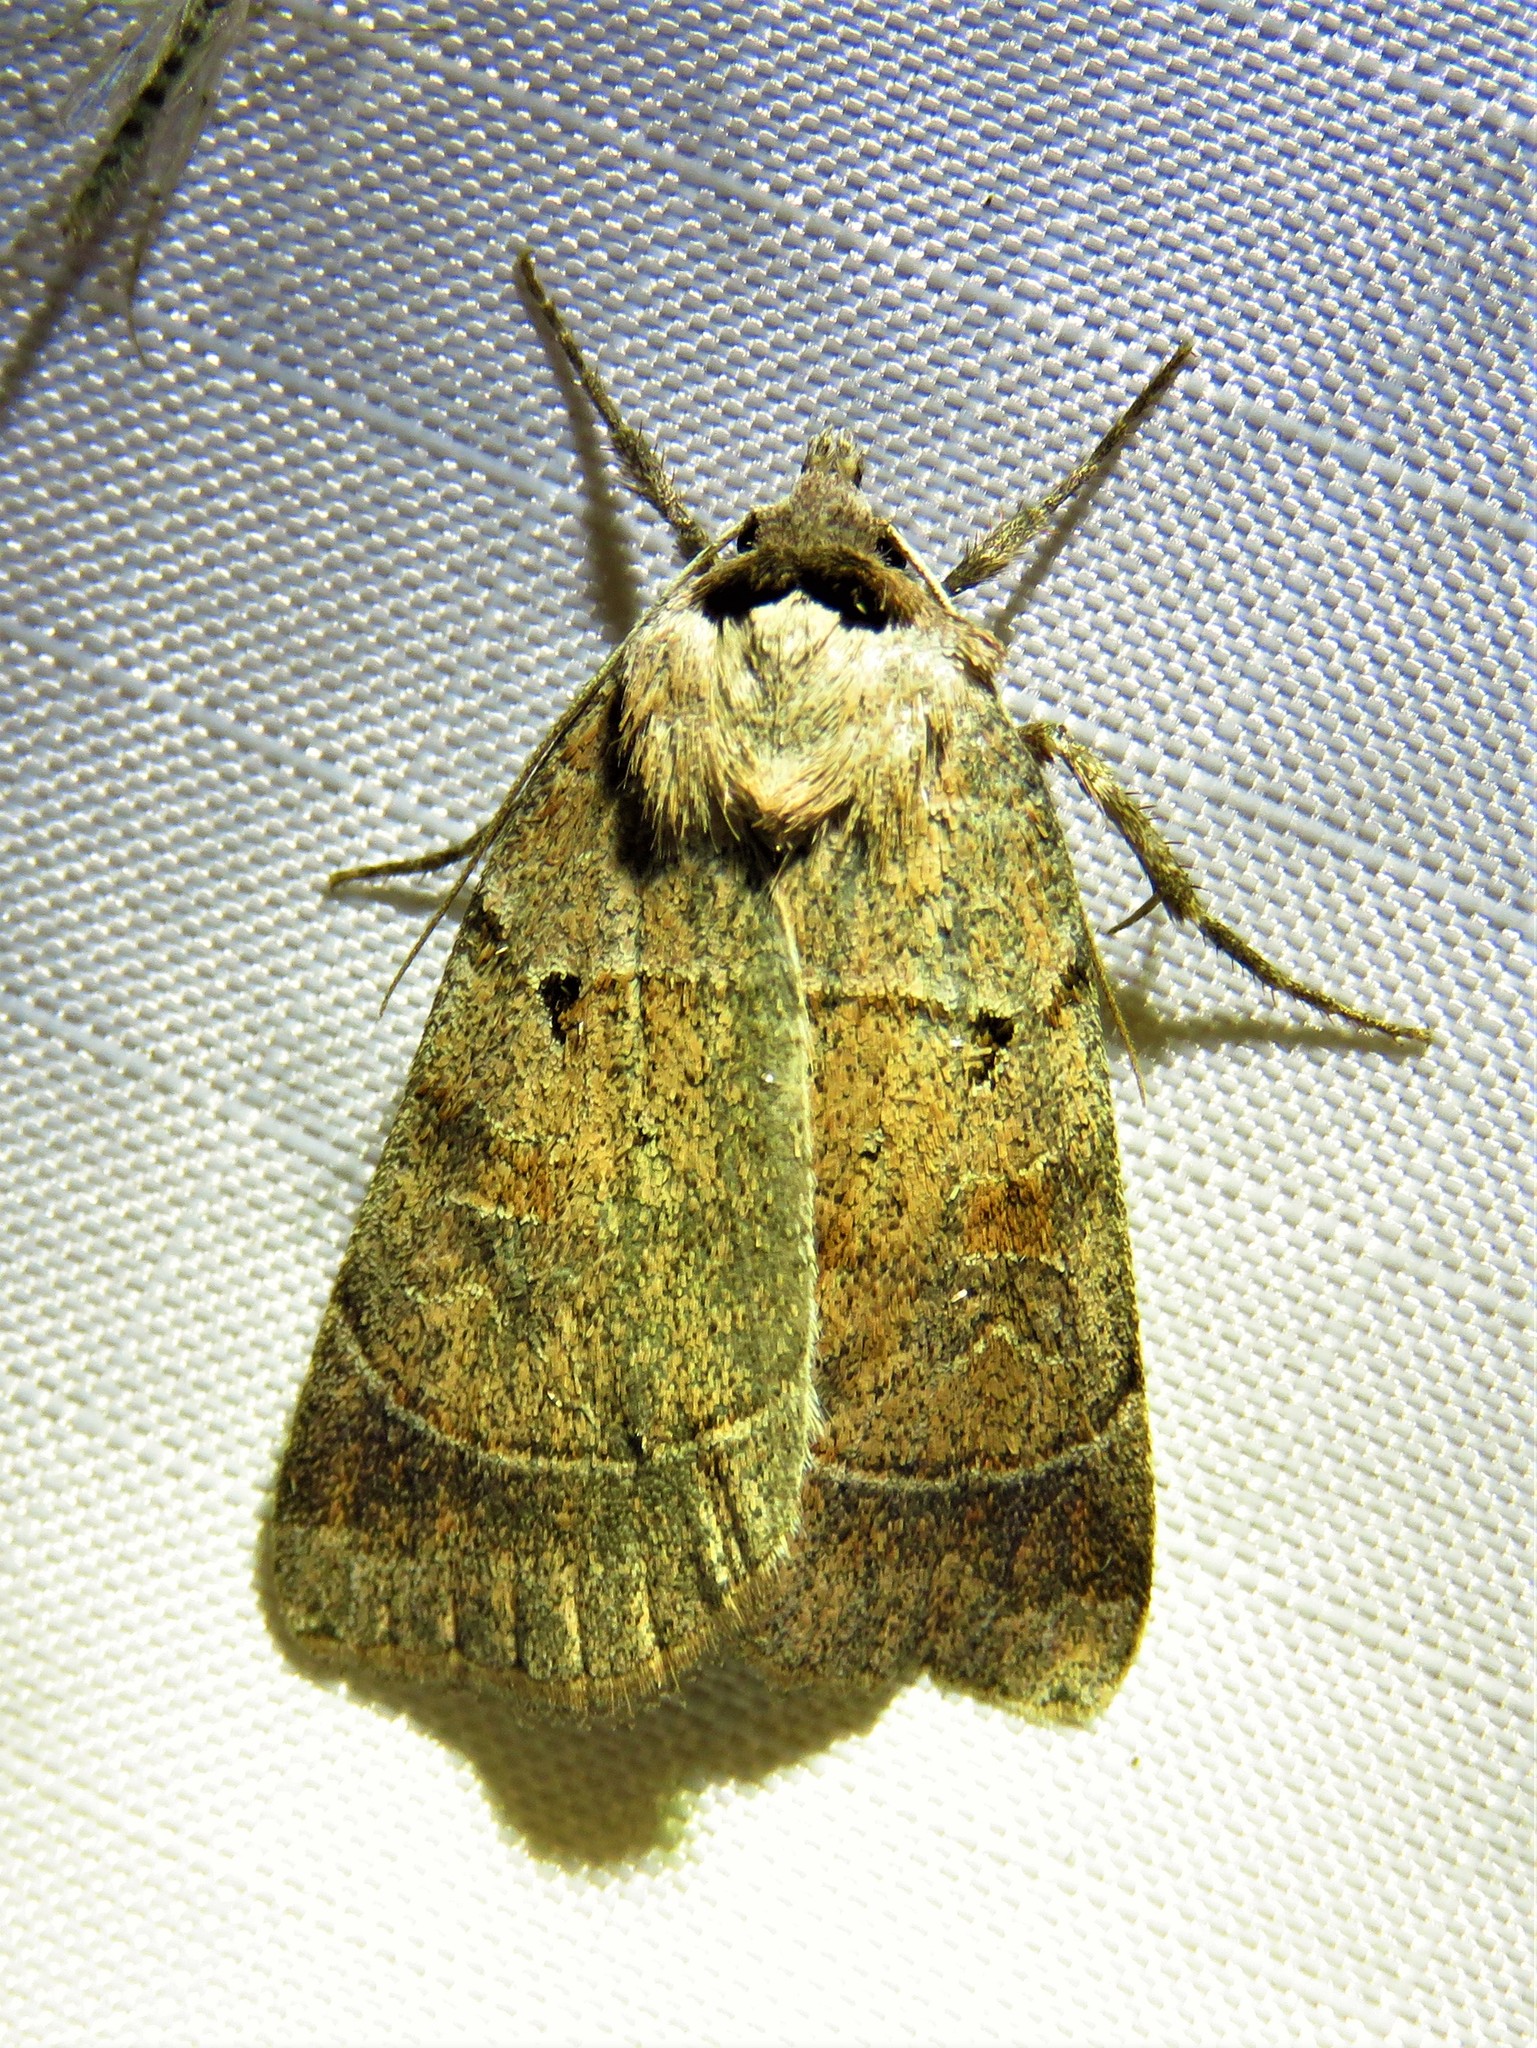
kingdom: Animalia
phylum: Arthropoda
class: Insecta
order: Lepidoptera
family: Noctuidae
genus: Agnorisma
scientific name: Agnorisma badinodis
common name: Pale-banded dart
